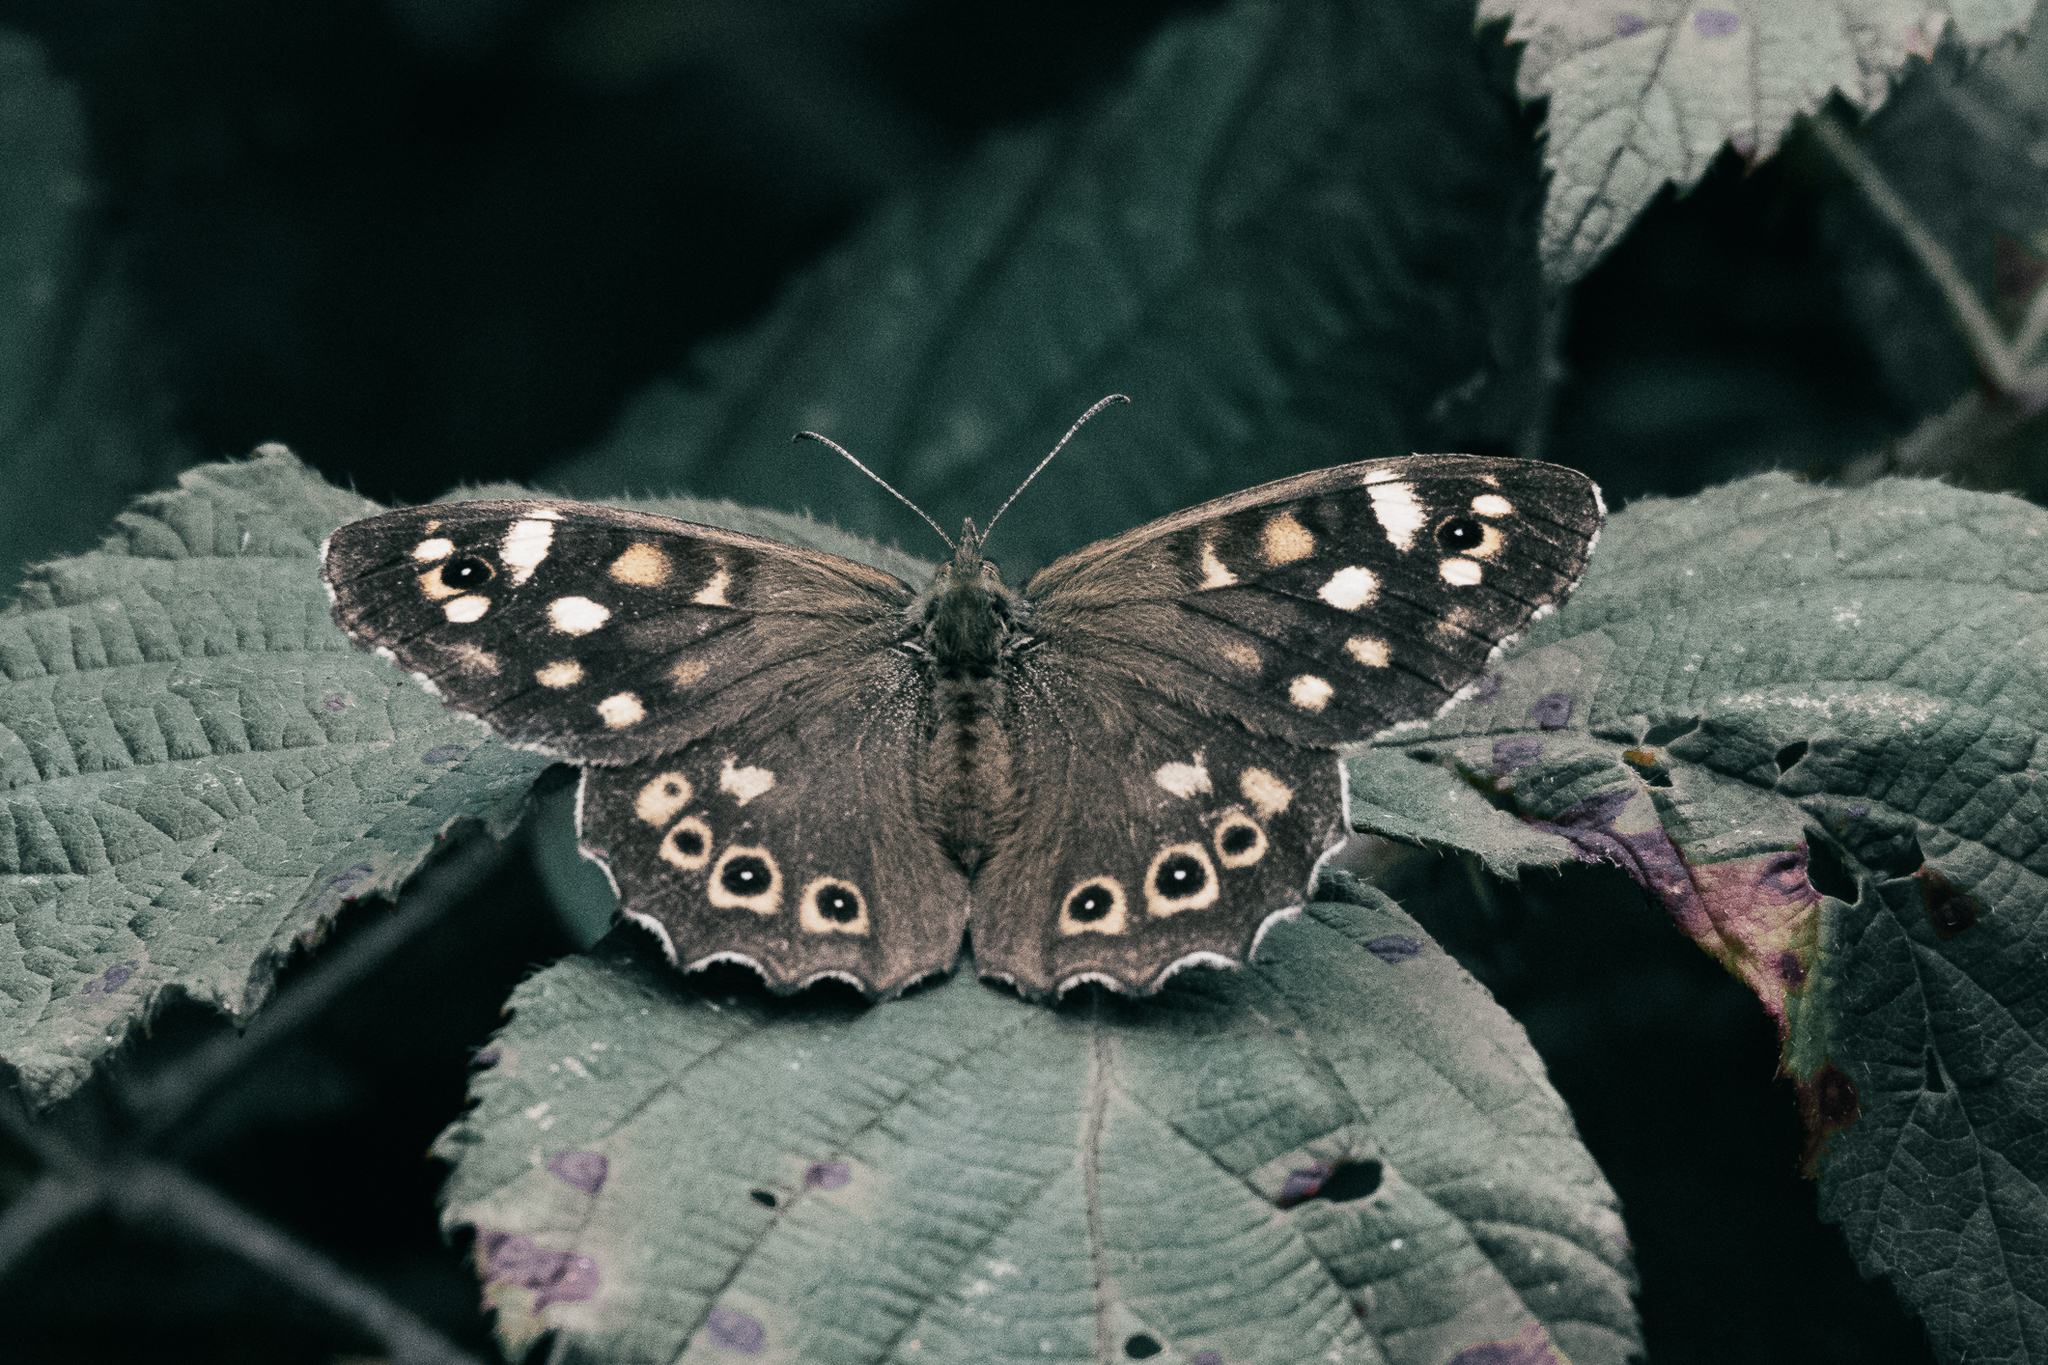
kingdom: Animalia
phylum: Arthropoda
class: Insecta
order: Lepidoptera
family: Nymphalidae
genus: Pararge
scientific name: Pararge aegeria
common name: Speckled wood
